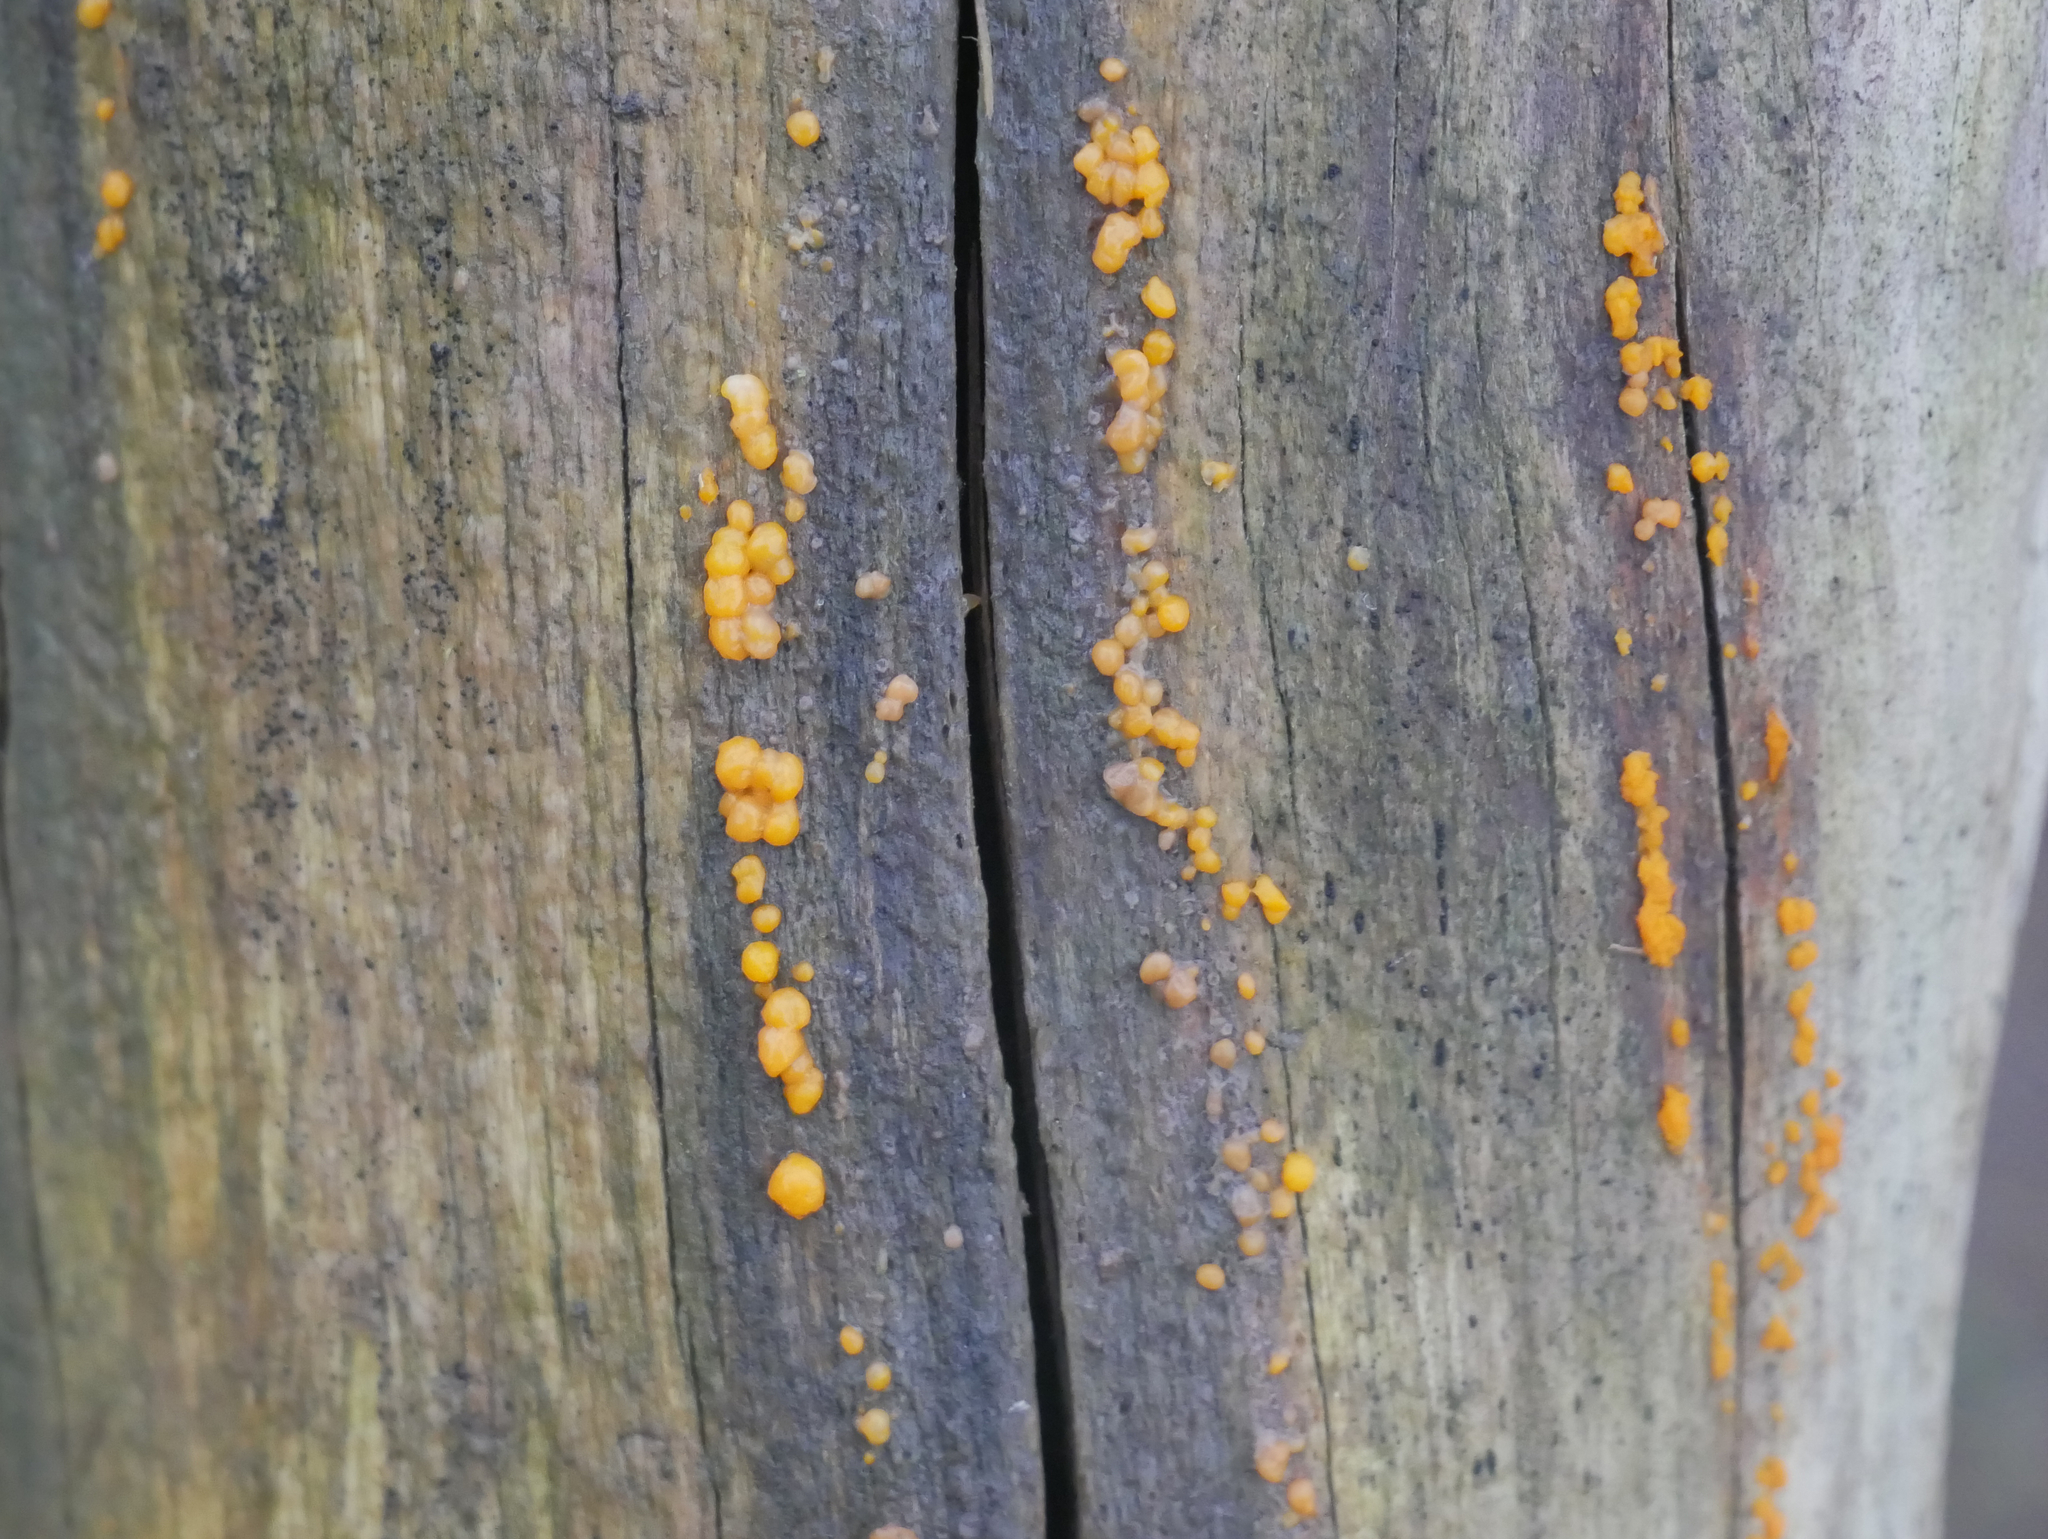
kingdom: Fungi
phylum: Basidiomycota
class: Dacrymycetes
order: Dacrymycetales
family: Dacrymycetaceae
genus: Dacrymyces
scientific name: Dacrymyces stillatus
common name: Common jelly spot
